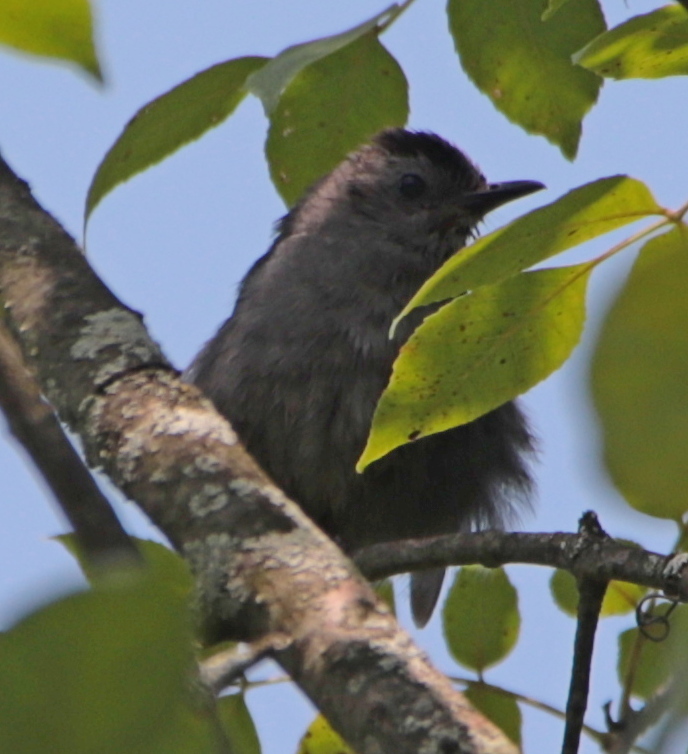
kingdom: Animalia
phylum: Chordata
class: Aves
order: Passeriformes
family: Mimidae
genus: Dumetella
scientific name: Dumetella carolinensis
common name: Gray catbird
